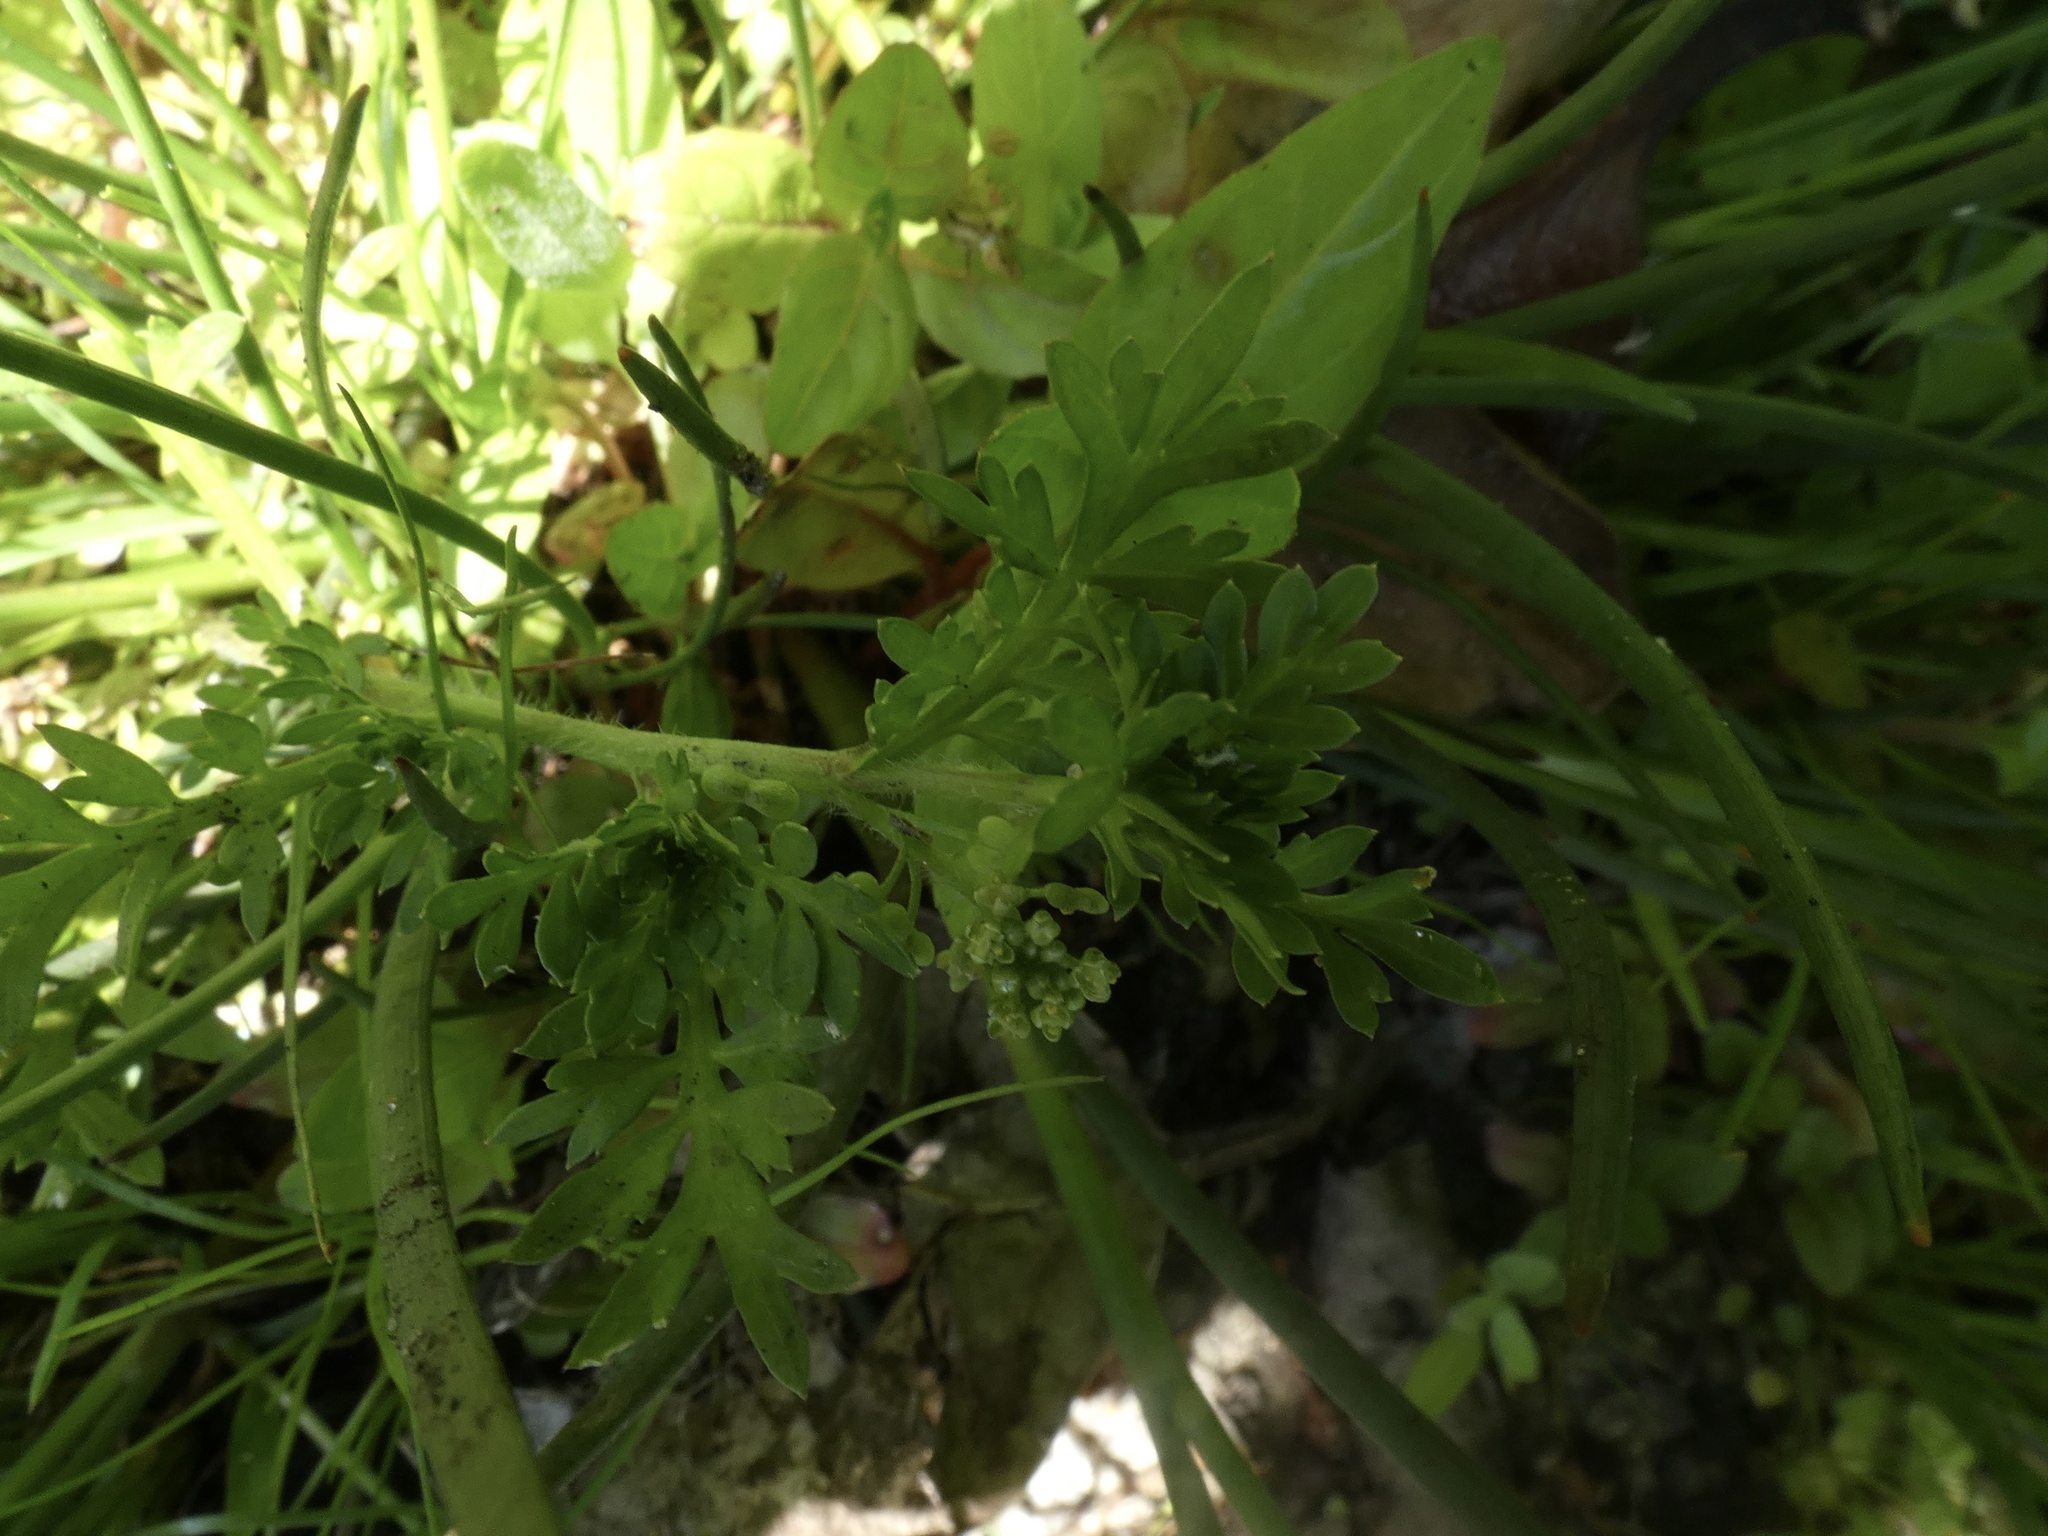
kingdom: Plantae
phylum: Tracheophyta
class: Magnoliopsida
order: Brassicales
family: Brassicaceae
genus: Lepidium
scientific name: Lepidium didymum
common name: Lesser swinecress
